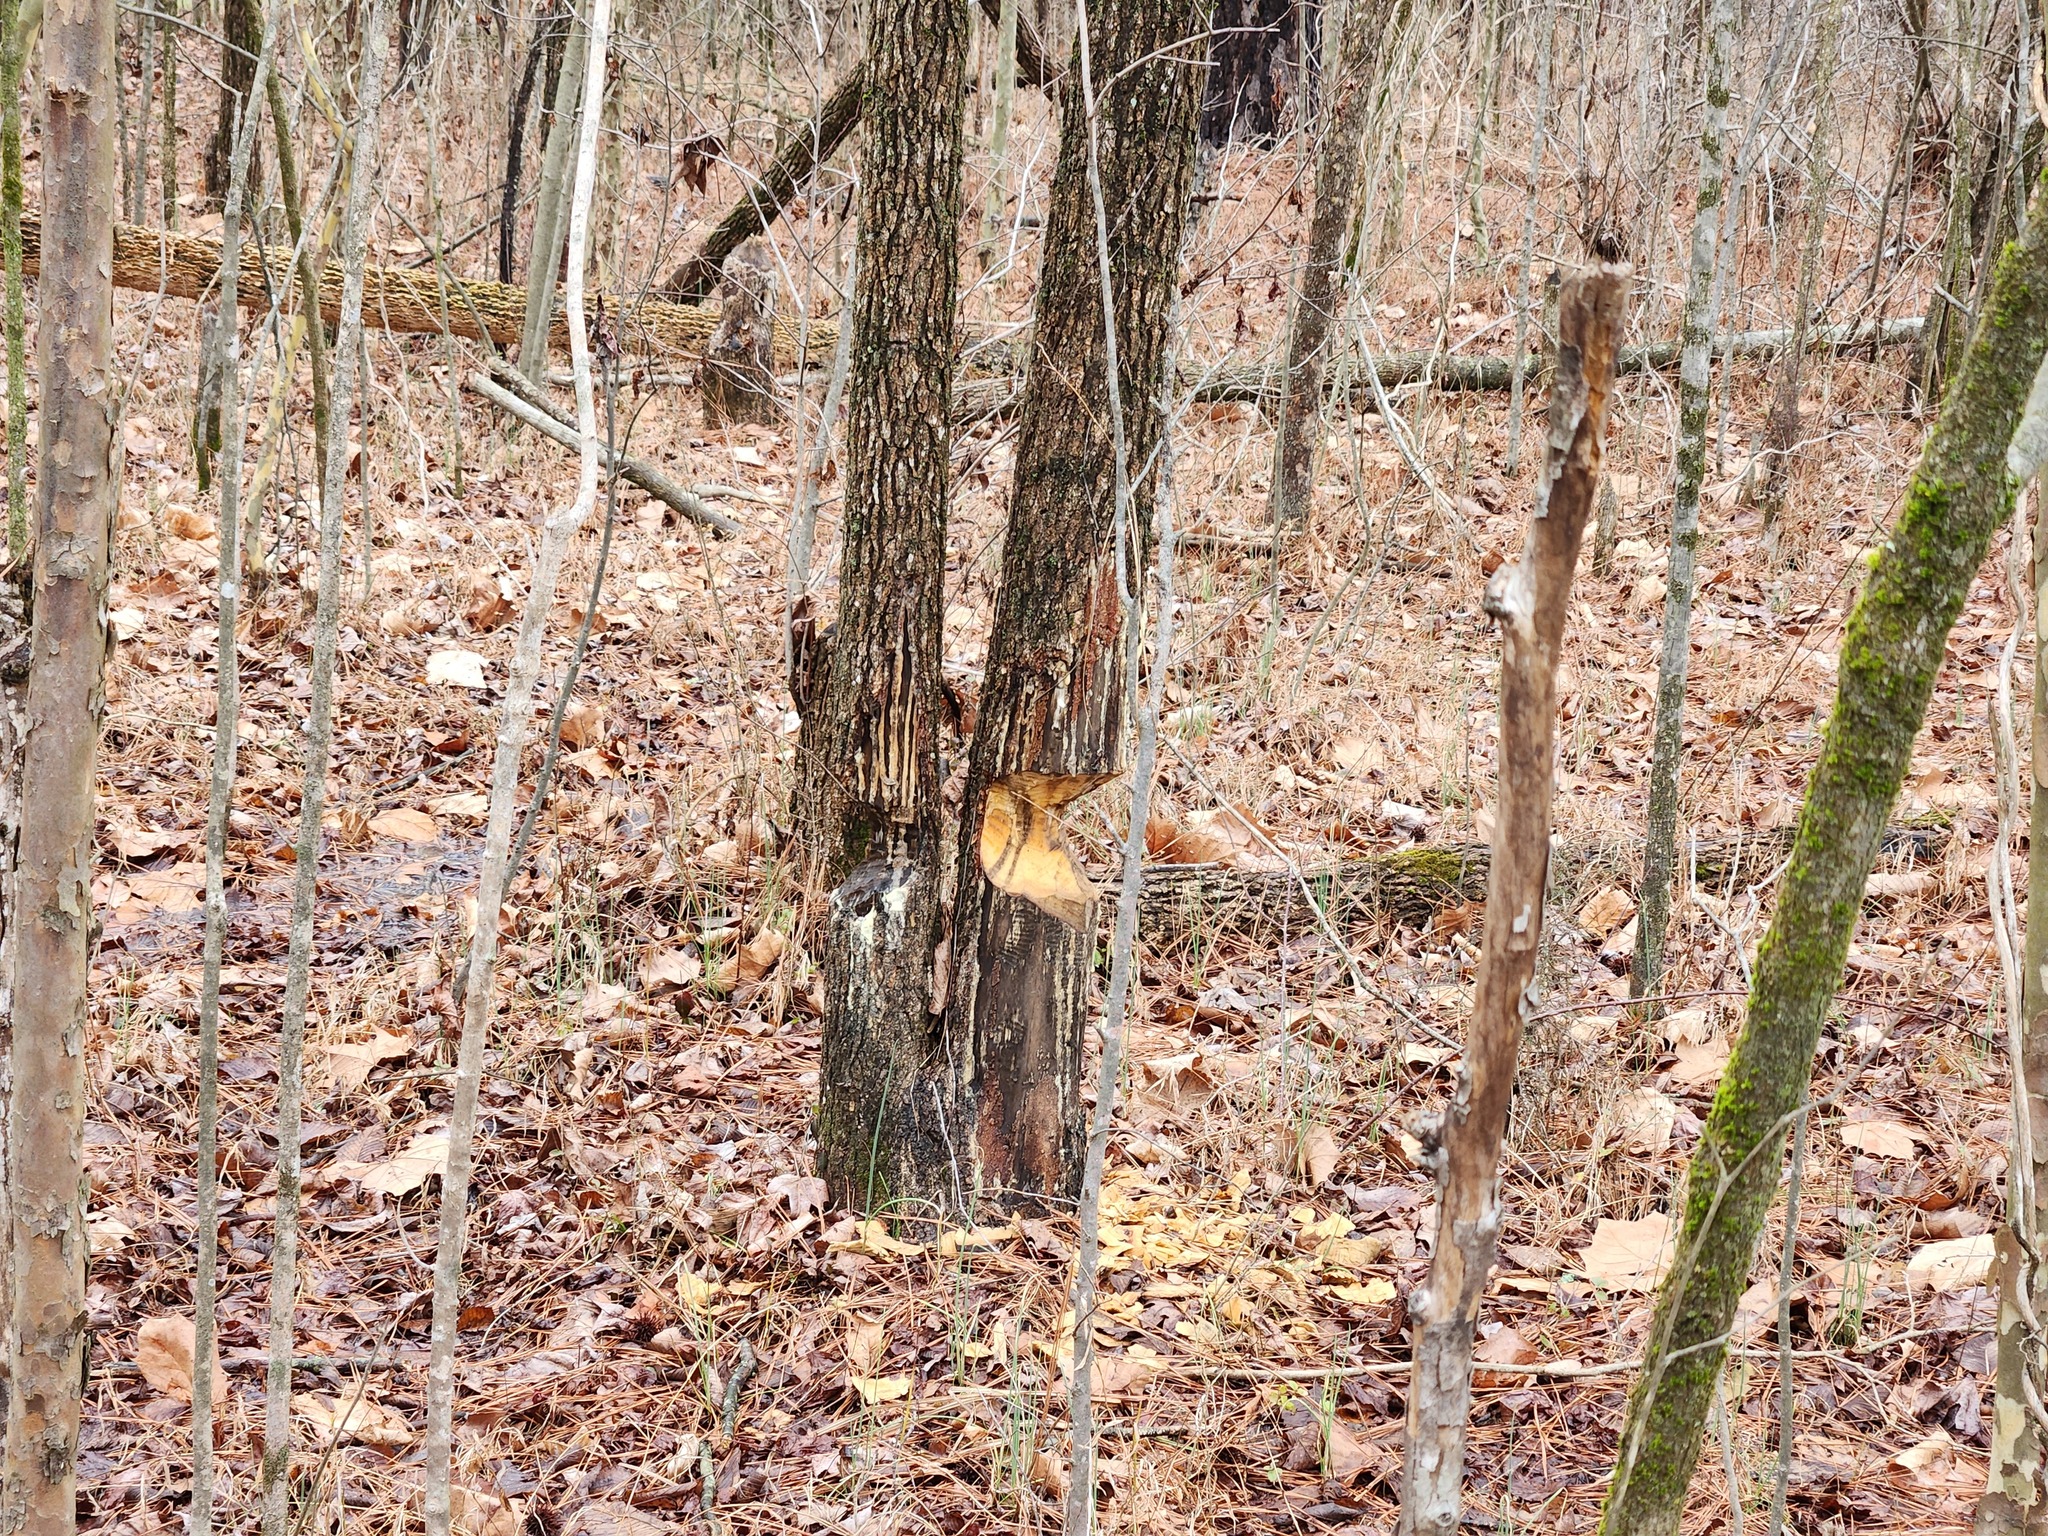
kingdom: Animalia
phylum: Chordata
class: Mammalia
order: Rodentia
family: Castoridae
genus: Castor
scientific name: Castor canadensis
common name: American beaver
